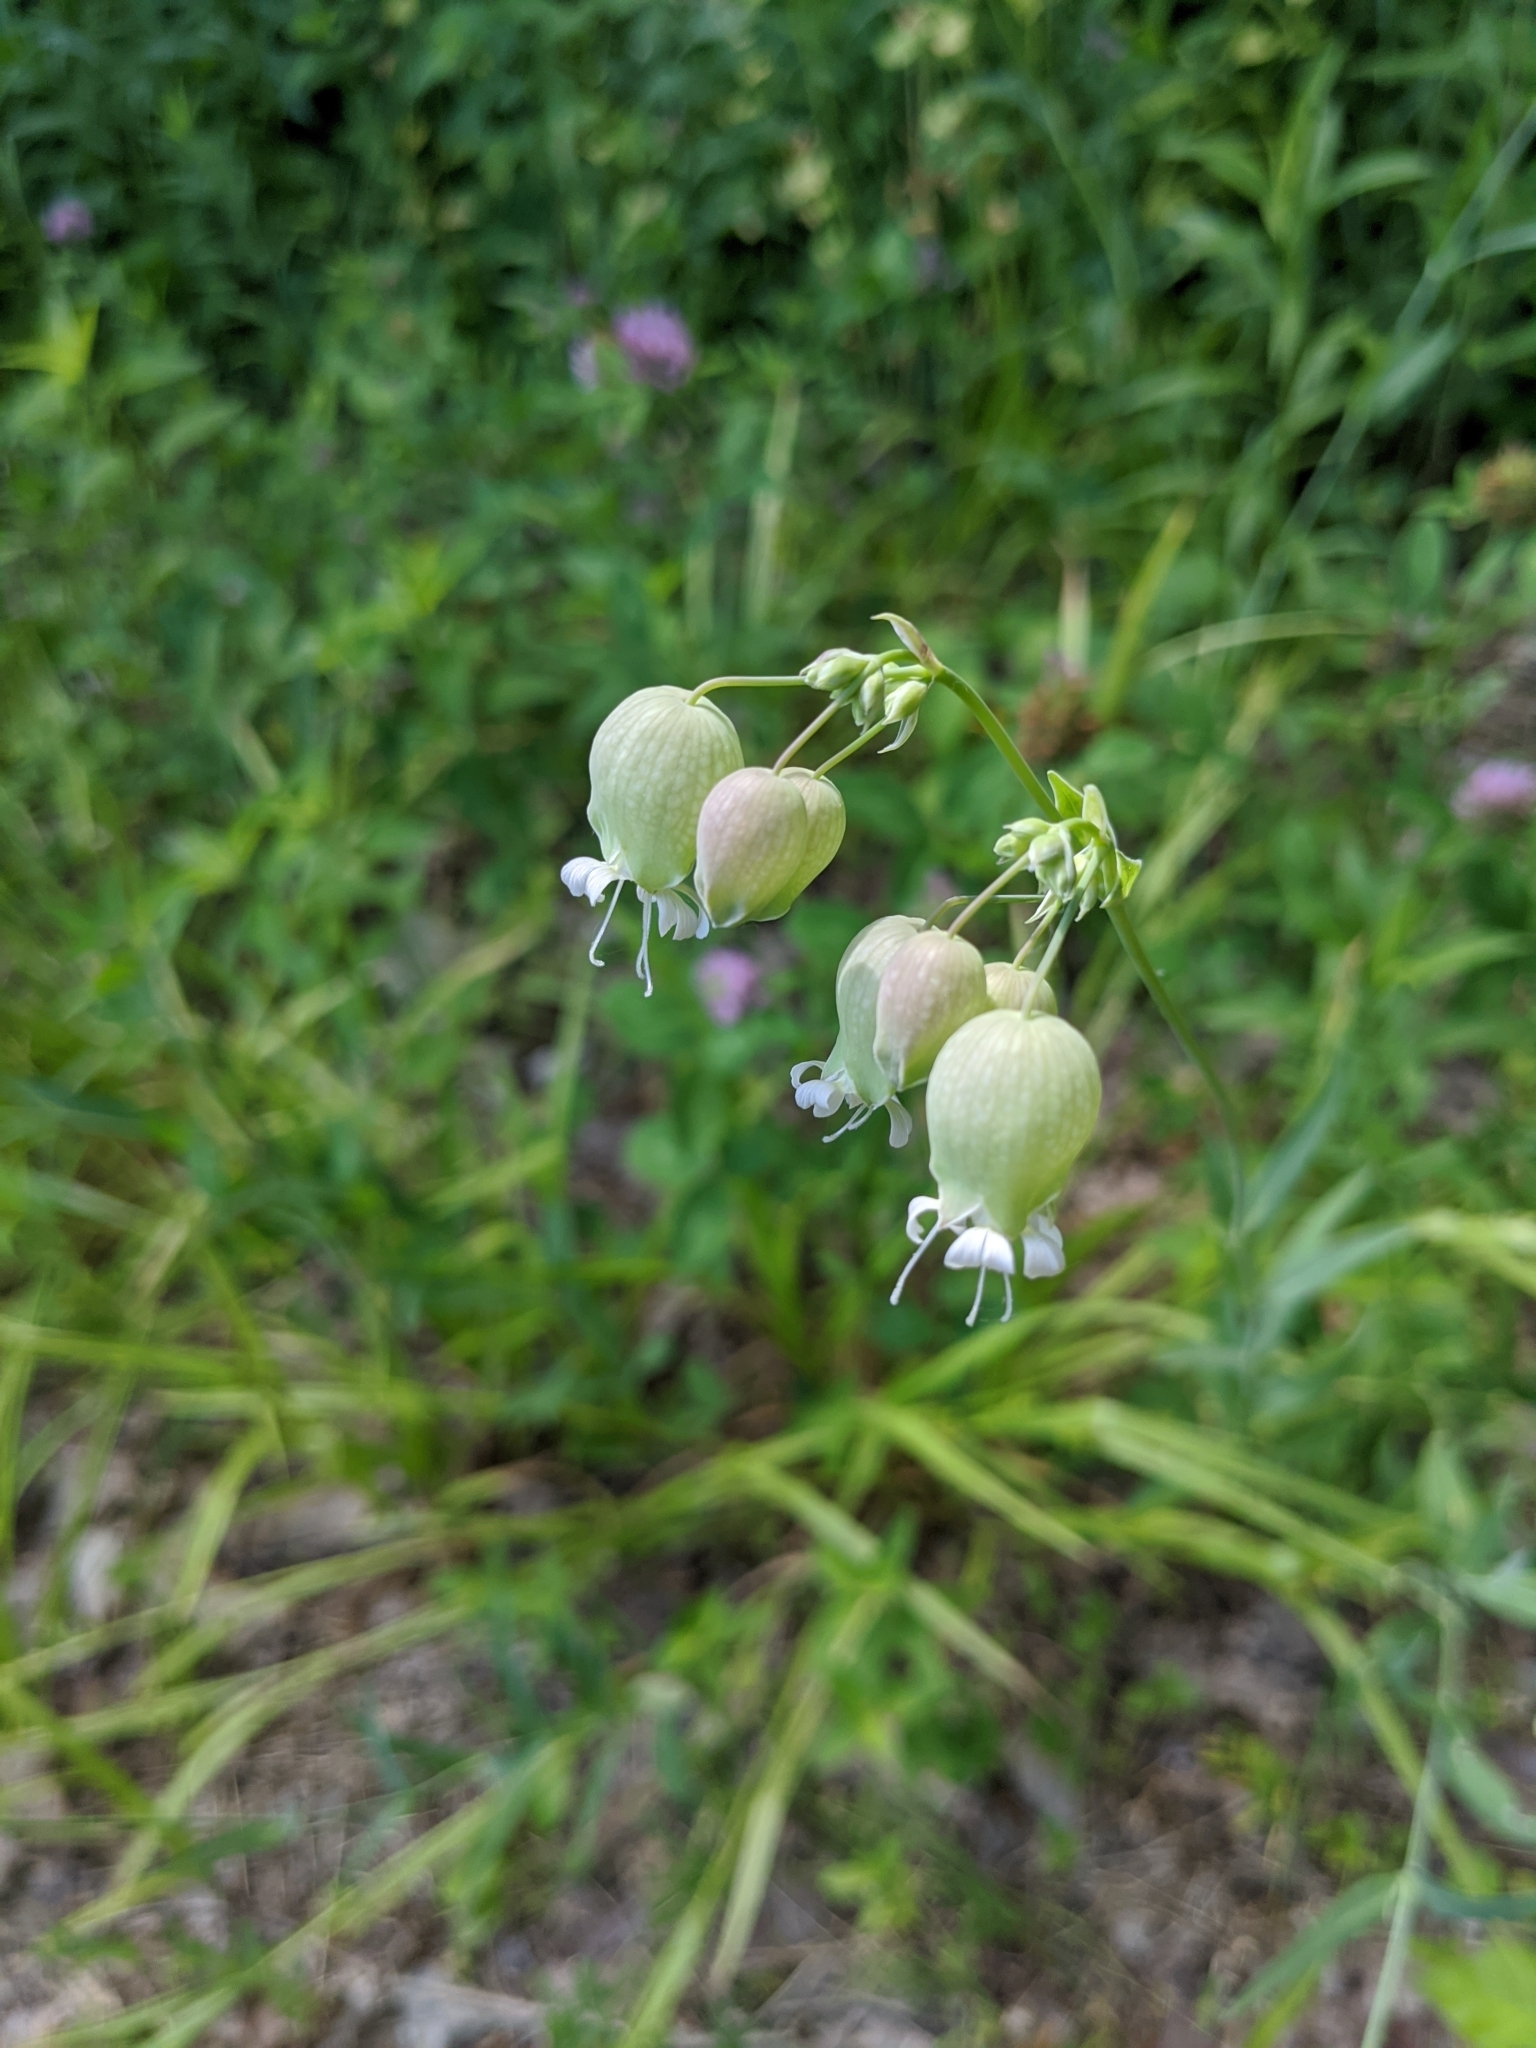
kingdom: Plantae
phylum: Tracheophyta
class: Magnoliopsida
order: Caryophyllales
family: Caryophyllaceae
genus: Silene
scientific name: Silene vulgaris
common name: Bladder campion
